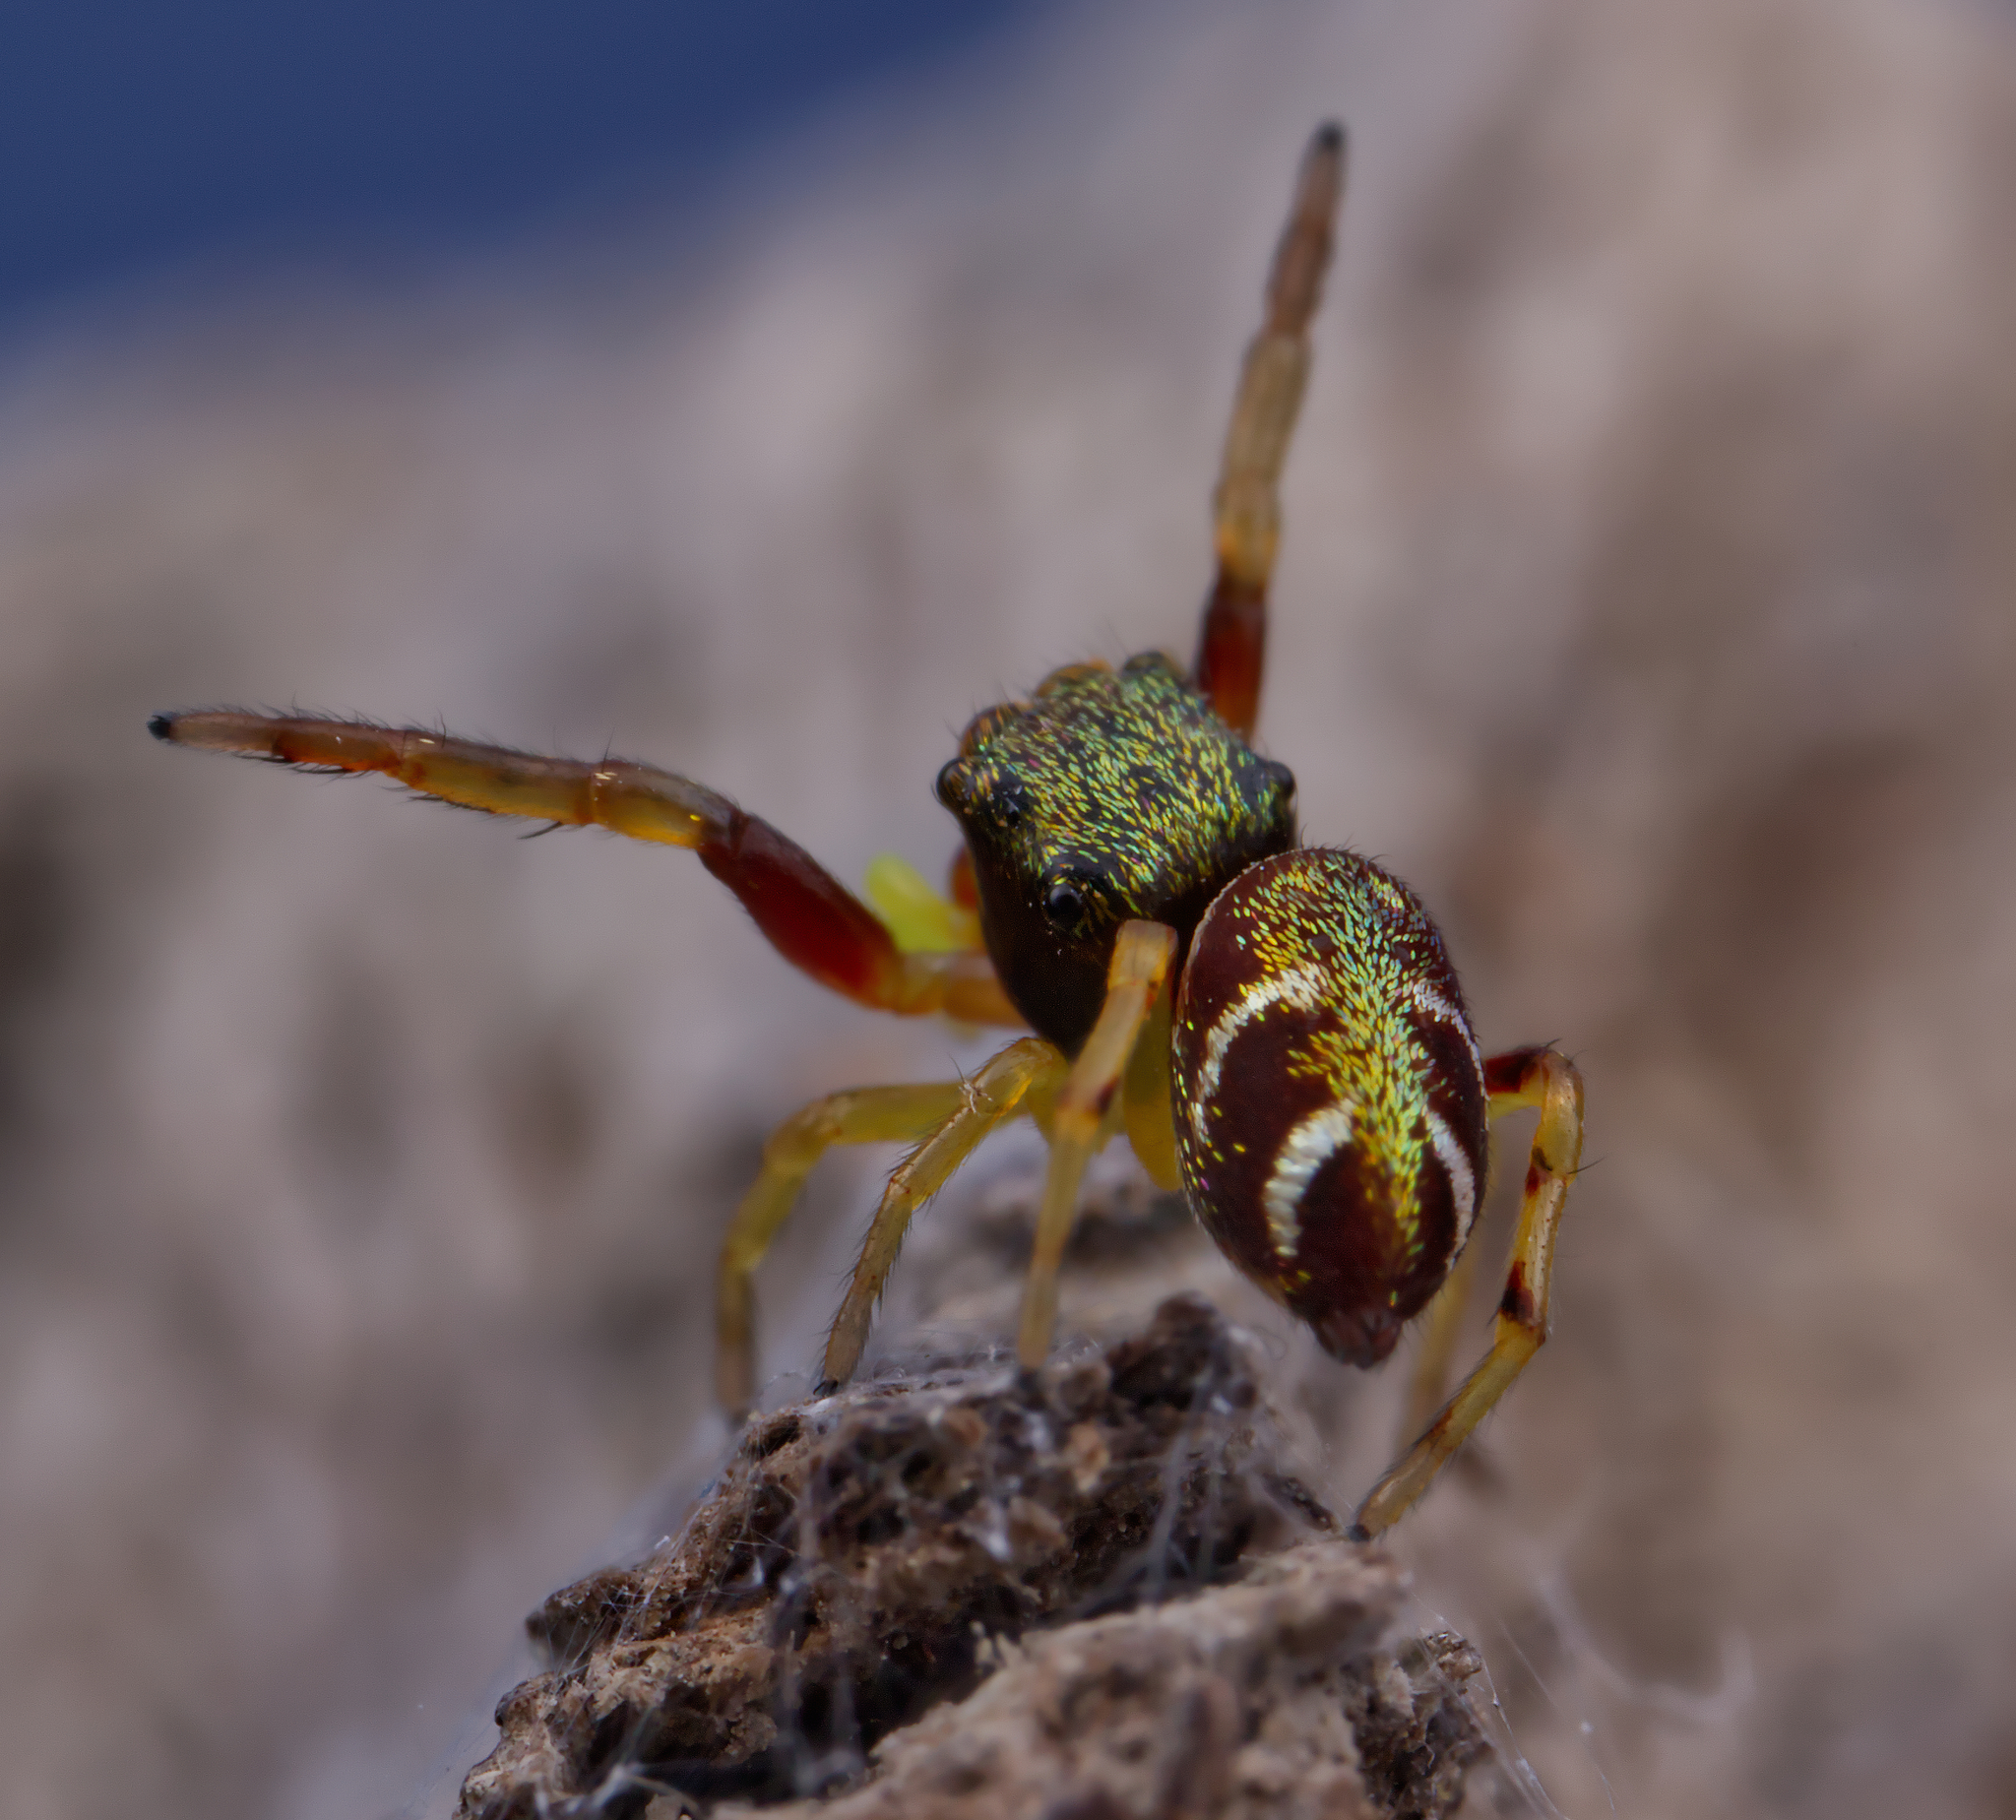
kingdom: Animalia
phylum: Arthropoda
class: Arachnida
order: Araneae
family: Salticidae
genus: Zygoballus
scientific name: Zygoballus rufipes
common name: Jumping spiders
